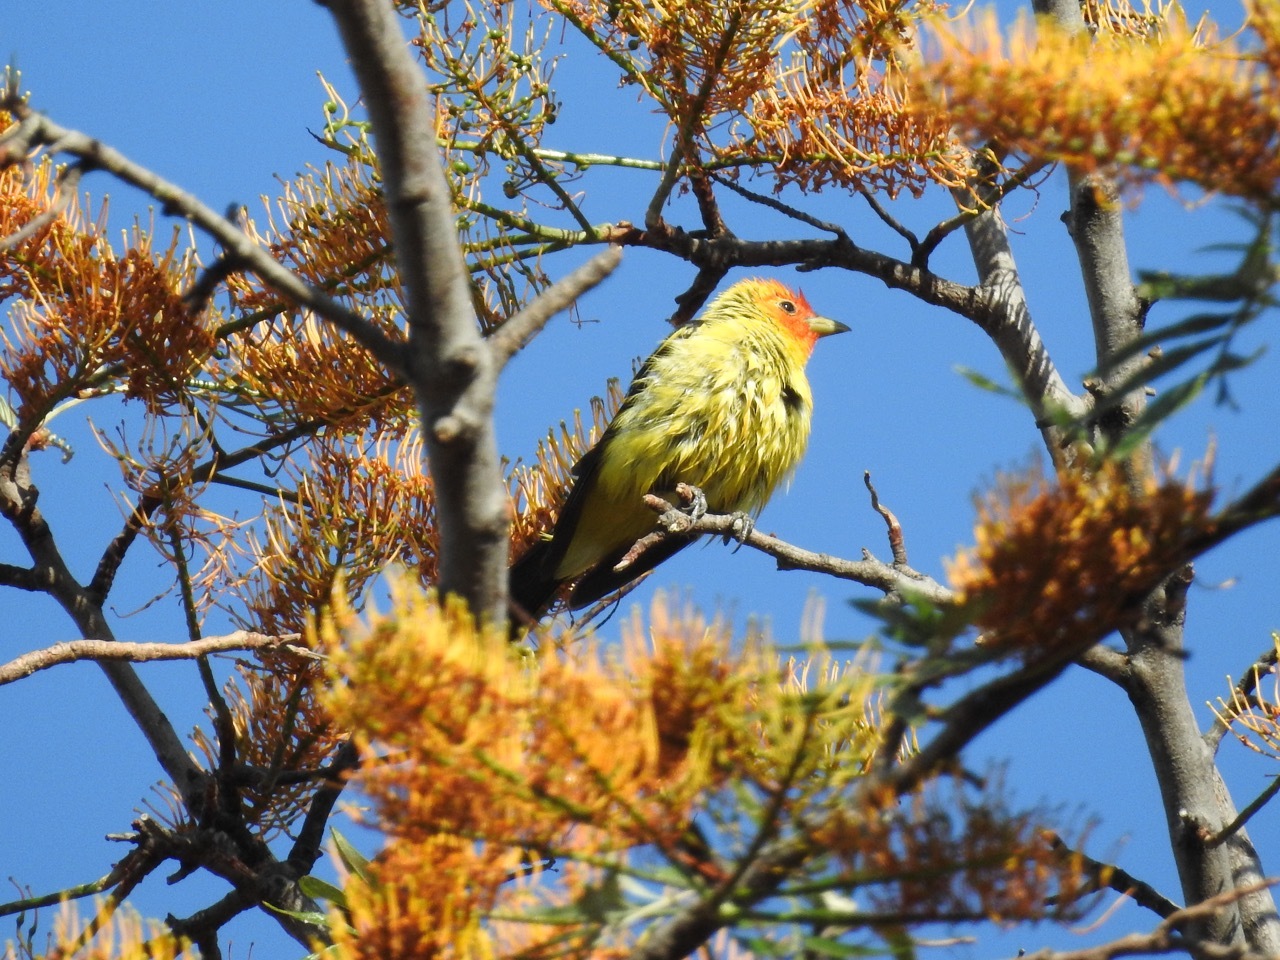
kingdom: Animalia
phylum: Chordata
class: Aves
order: Passeriformes
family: Cardinalidae
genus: Piranga
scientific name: Piranga ludoviciana
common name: Western tanager
